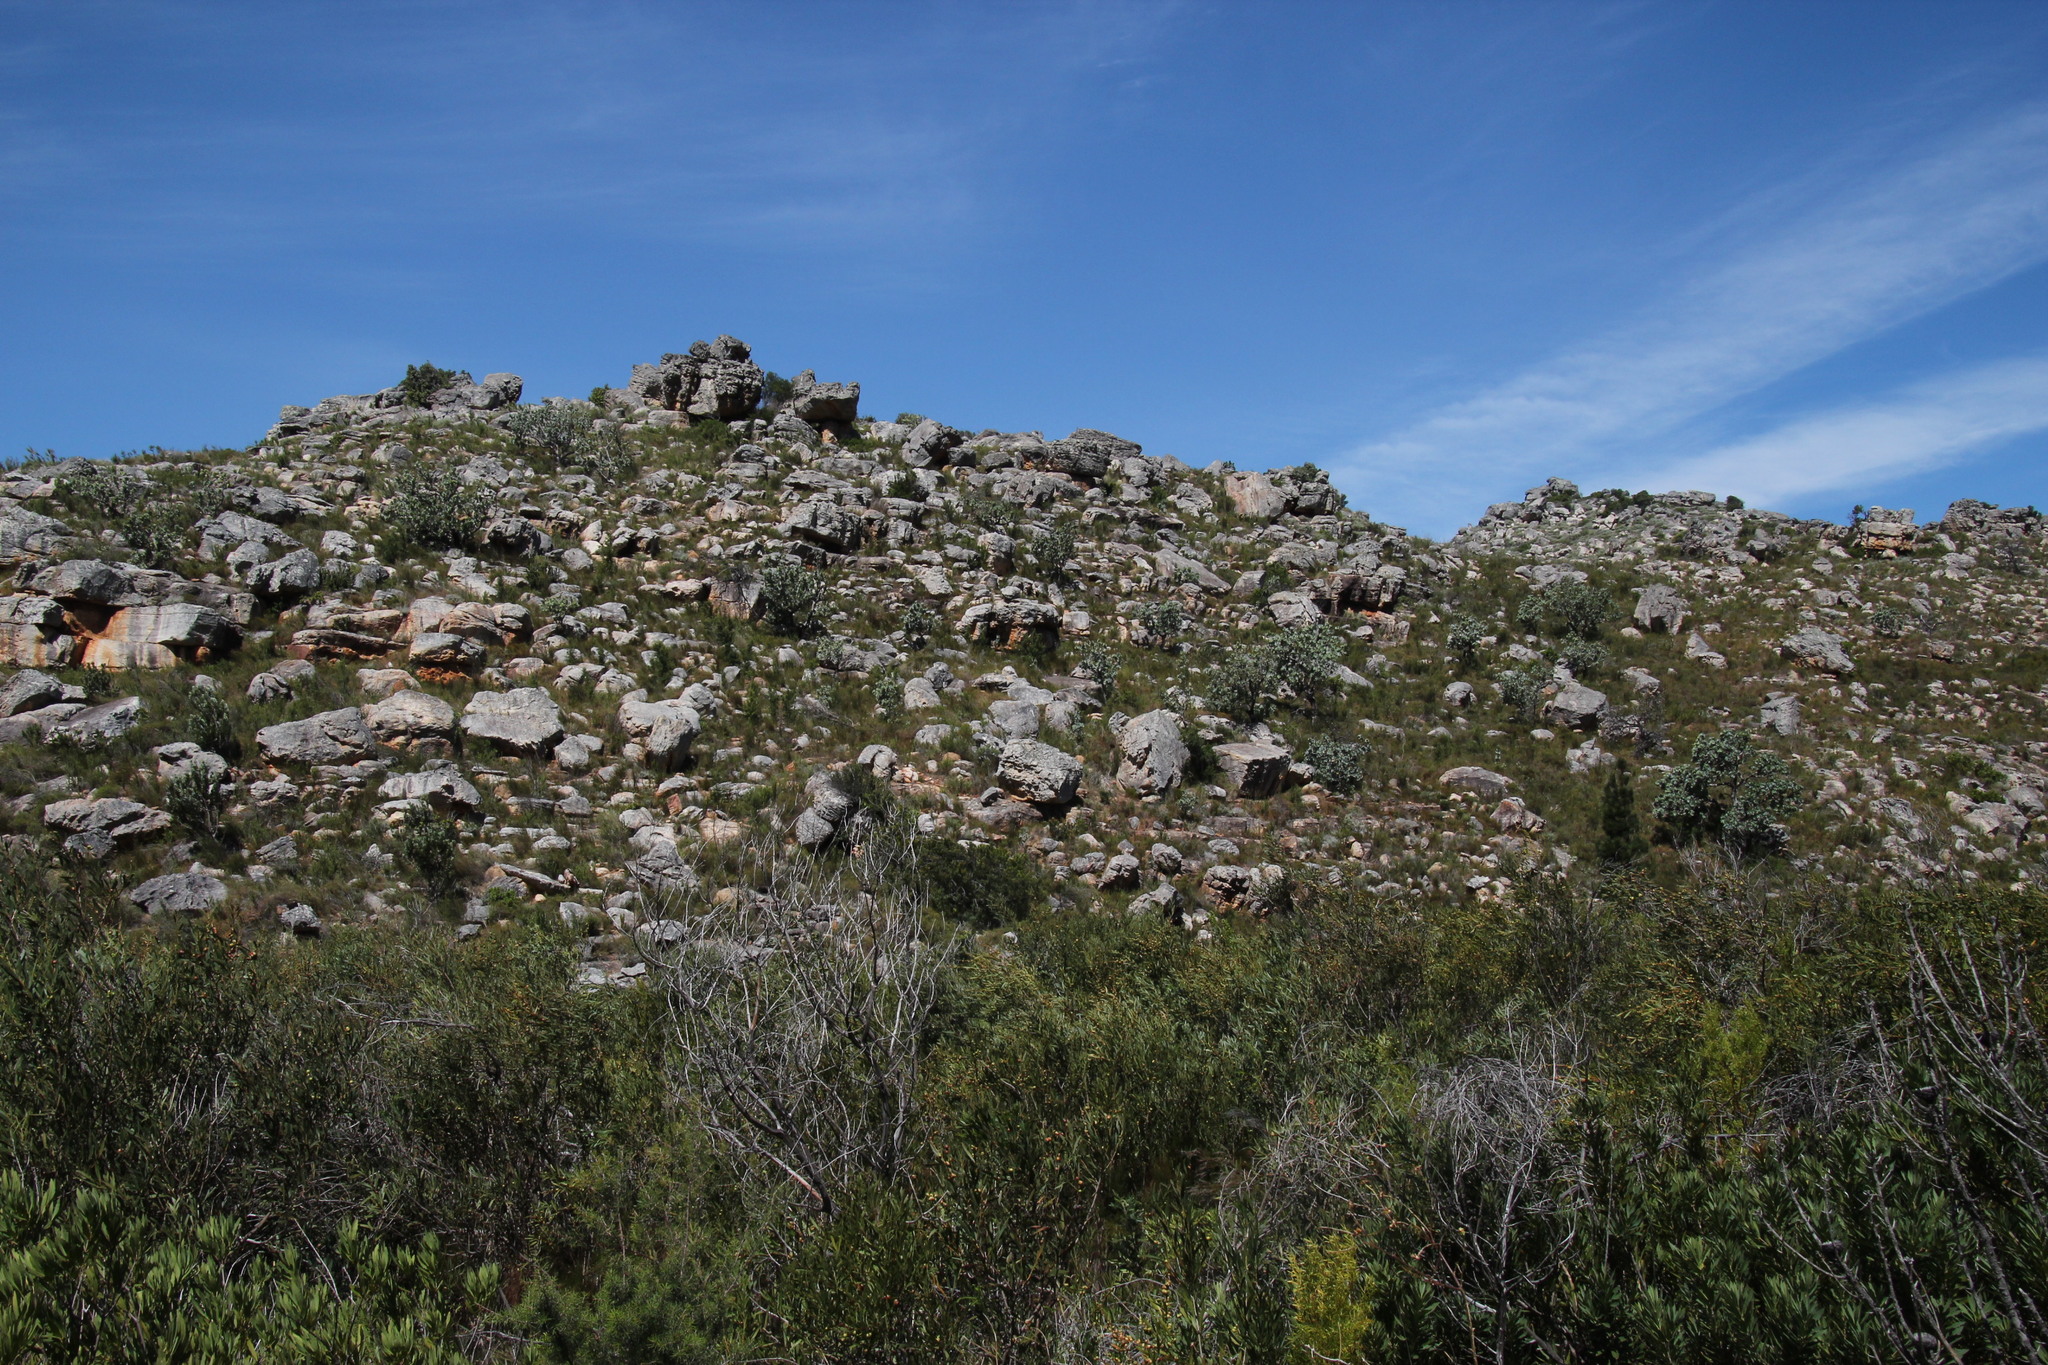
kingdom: Plantae
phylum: Tracheophyta
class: Magnoliopsida
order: Proteales
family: Proteaceae
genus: Protea
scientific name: Protea nitida
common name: Tree protea
